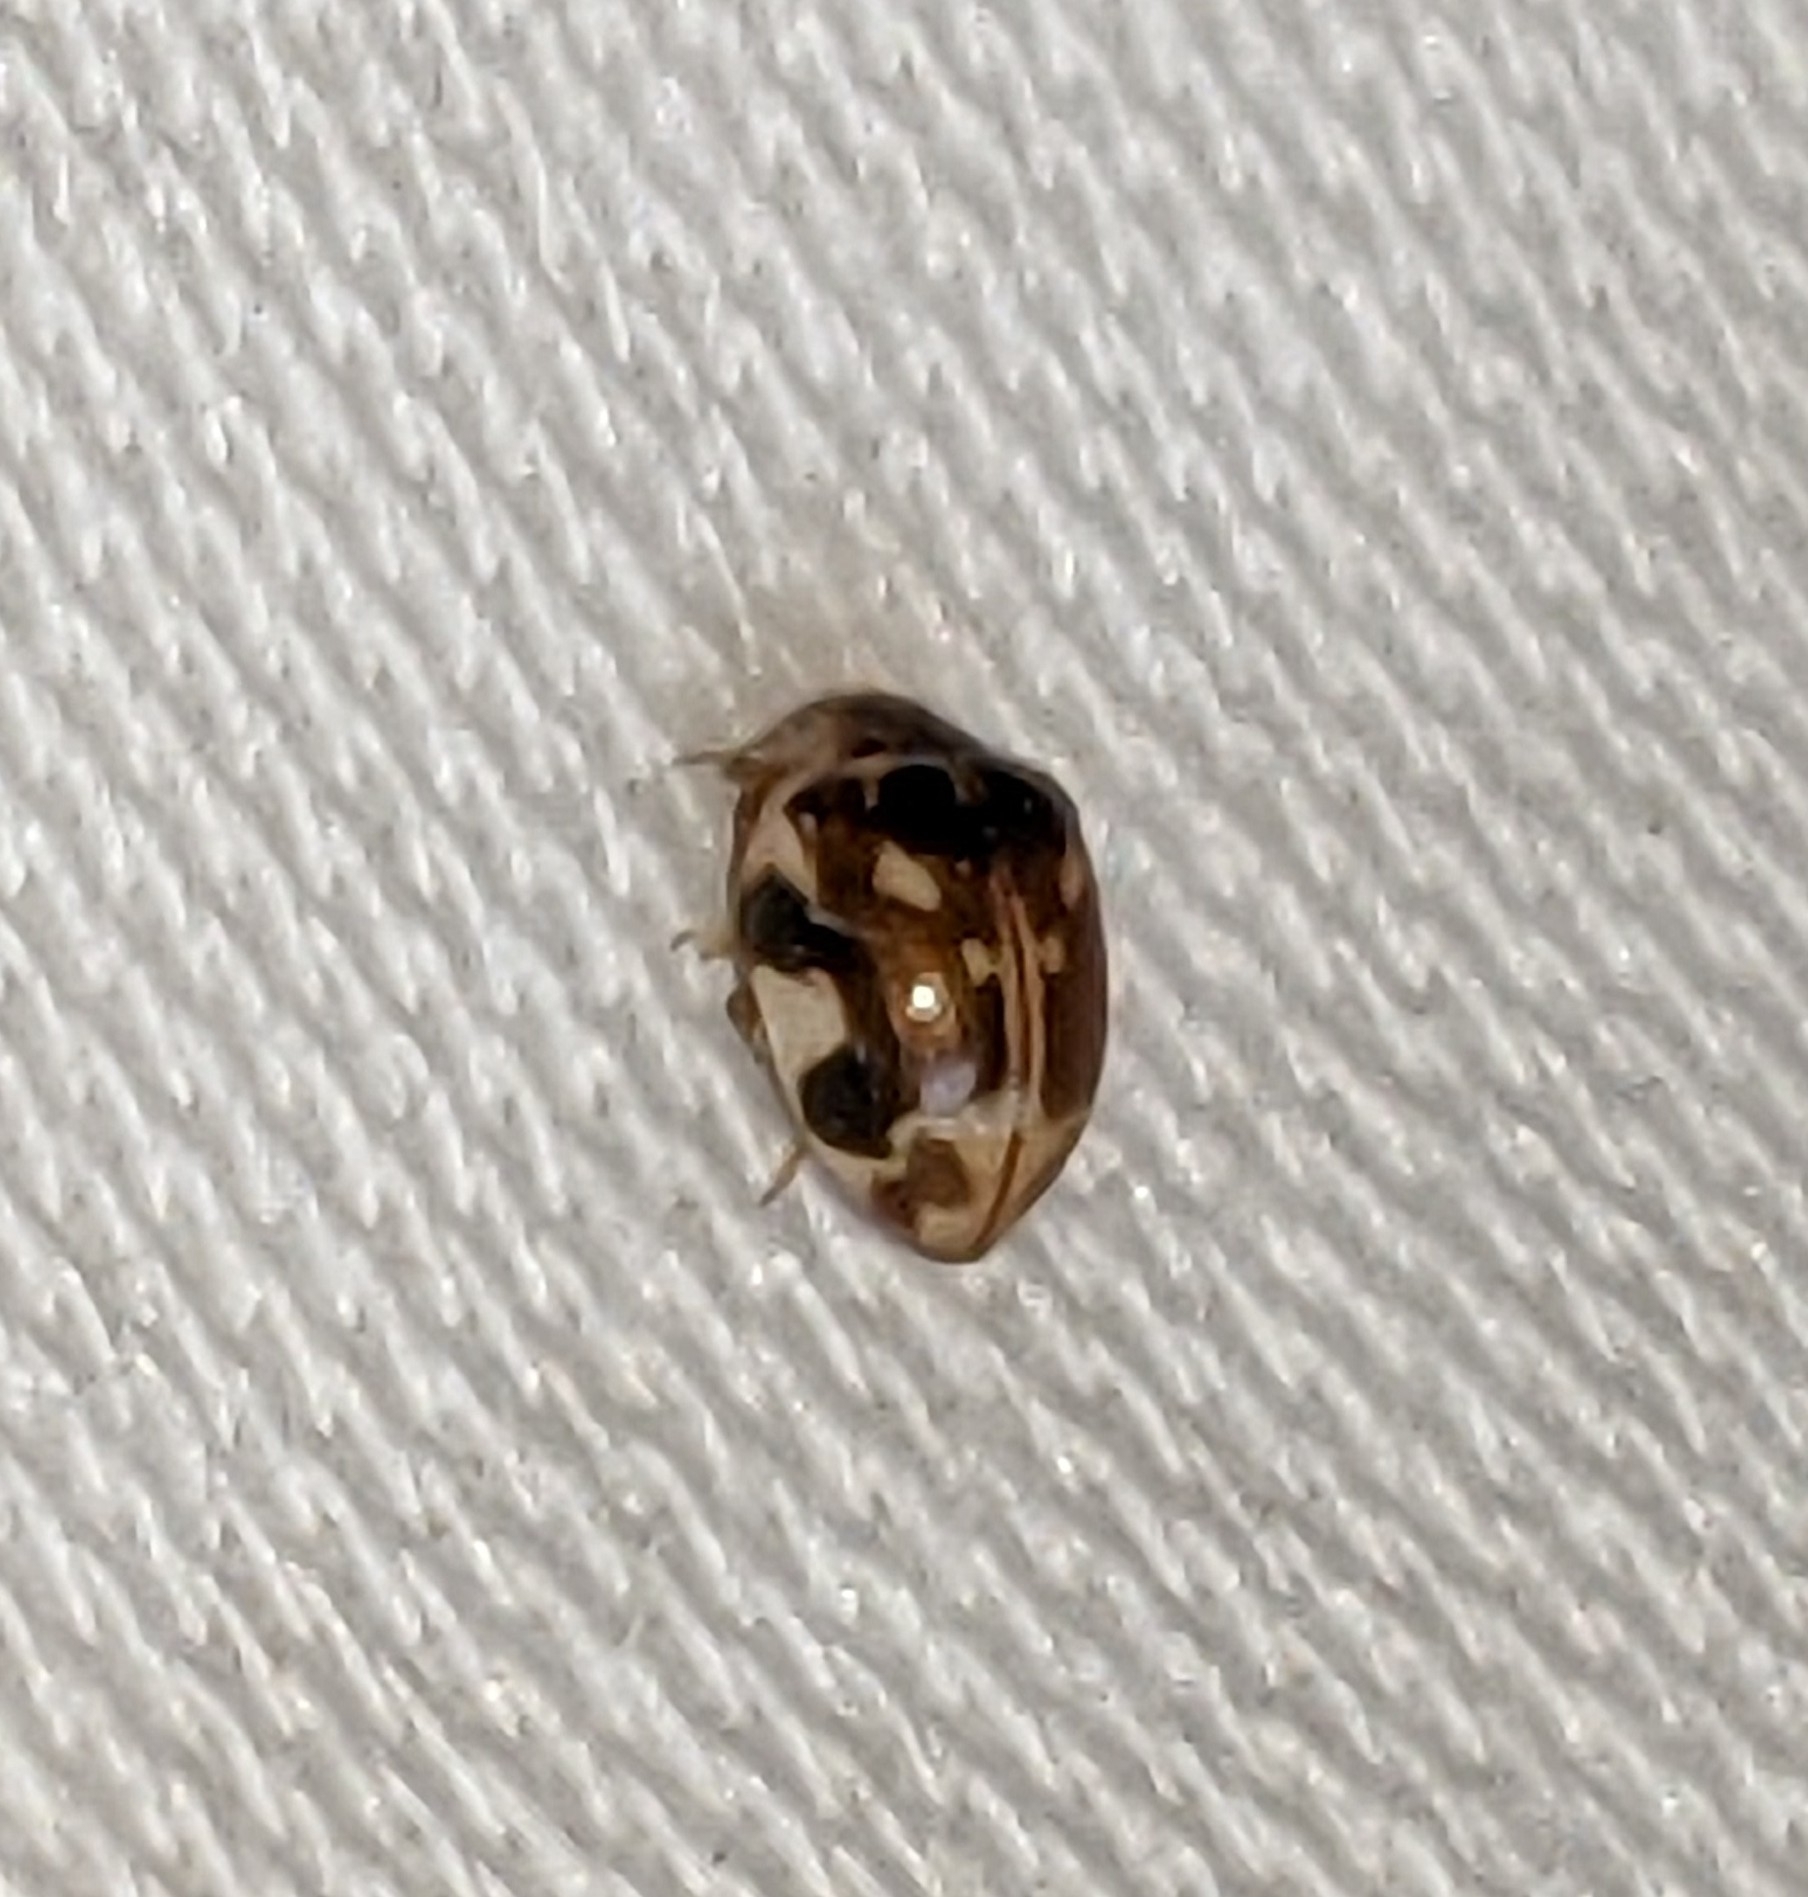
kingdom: Animalia
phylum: Arthropoda
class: Insecta
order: Coleoptera
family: Coccinellidae
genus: Psyllobora
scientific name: Psyllobora vigintimaculata
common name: Ladybird beetle
